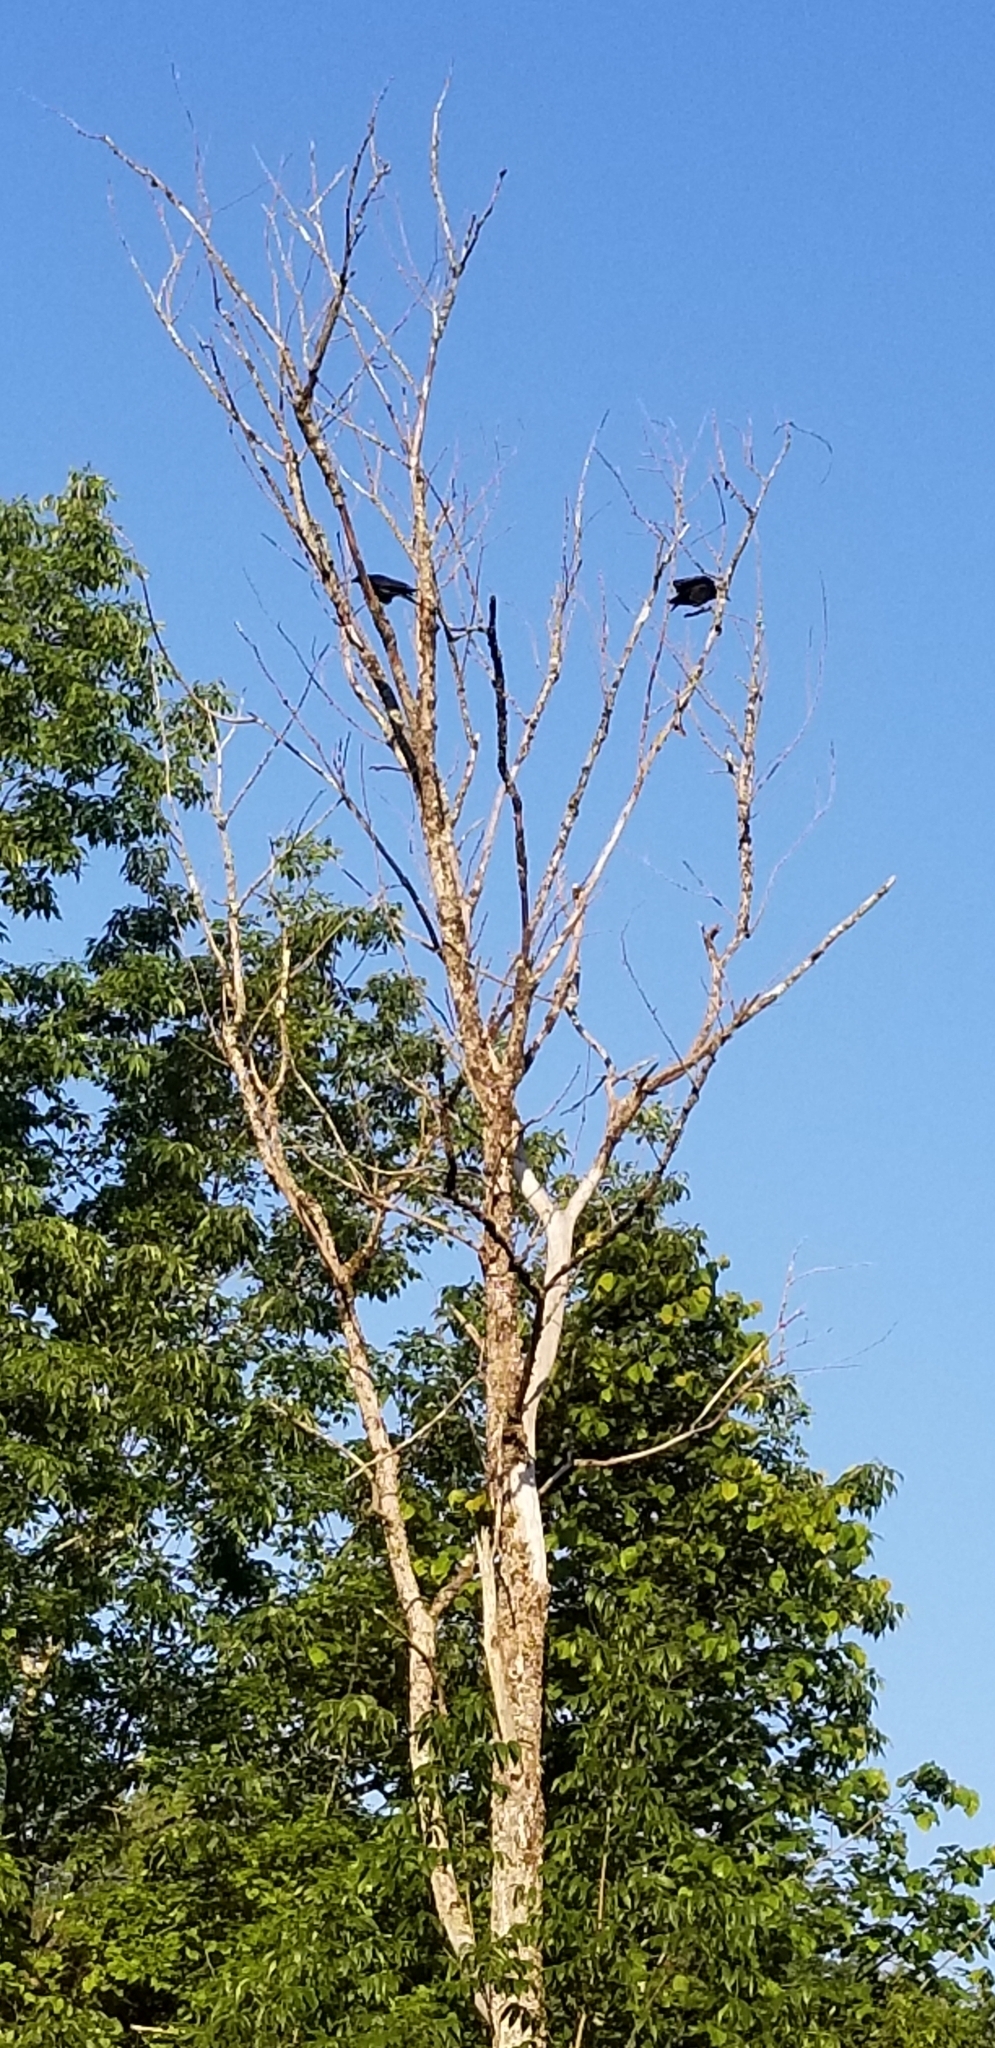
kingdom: Animalia
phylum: Chordata
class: Aves
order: Passeriformes
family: Corvidae
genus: Corvus
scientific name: Corvus brachyrhynchos
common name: American crow
